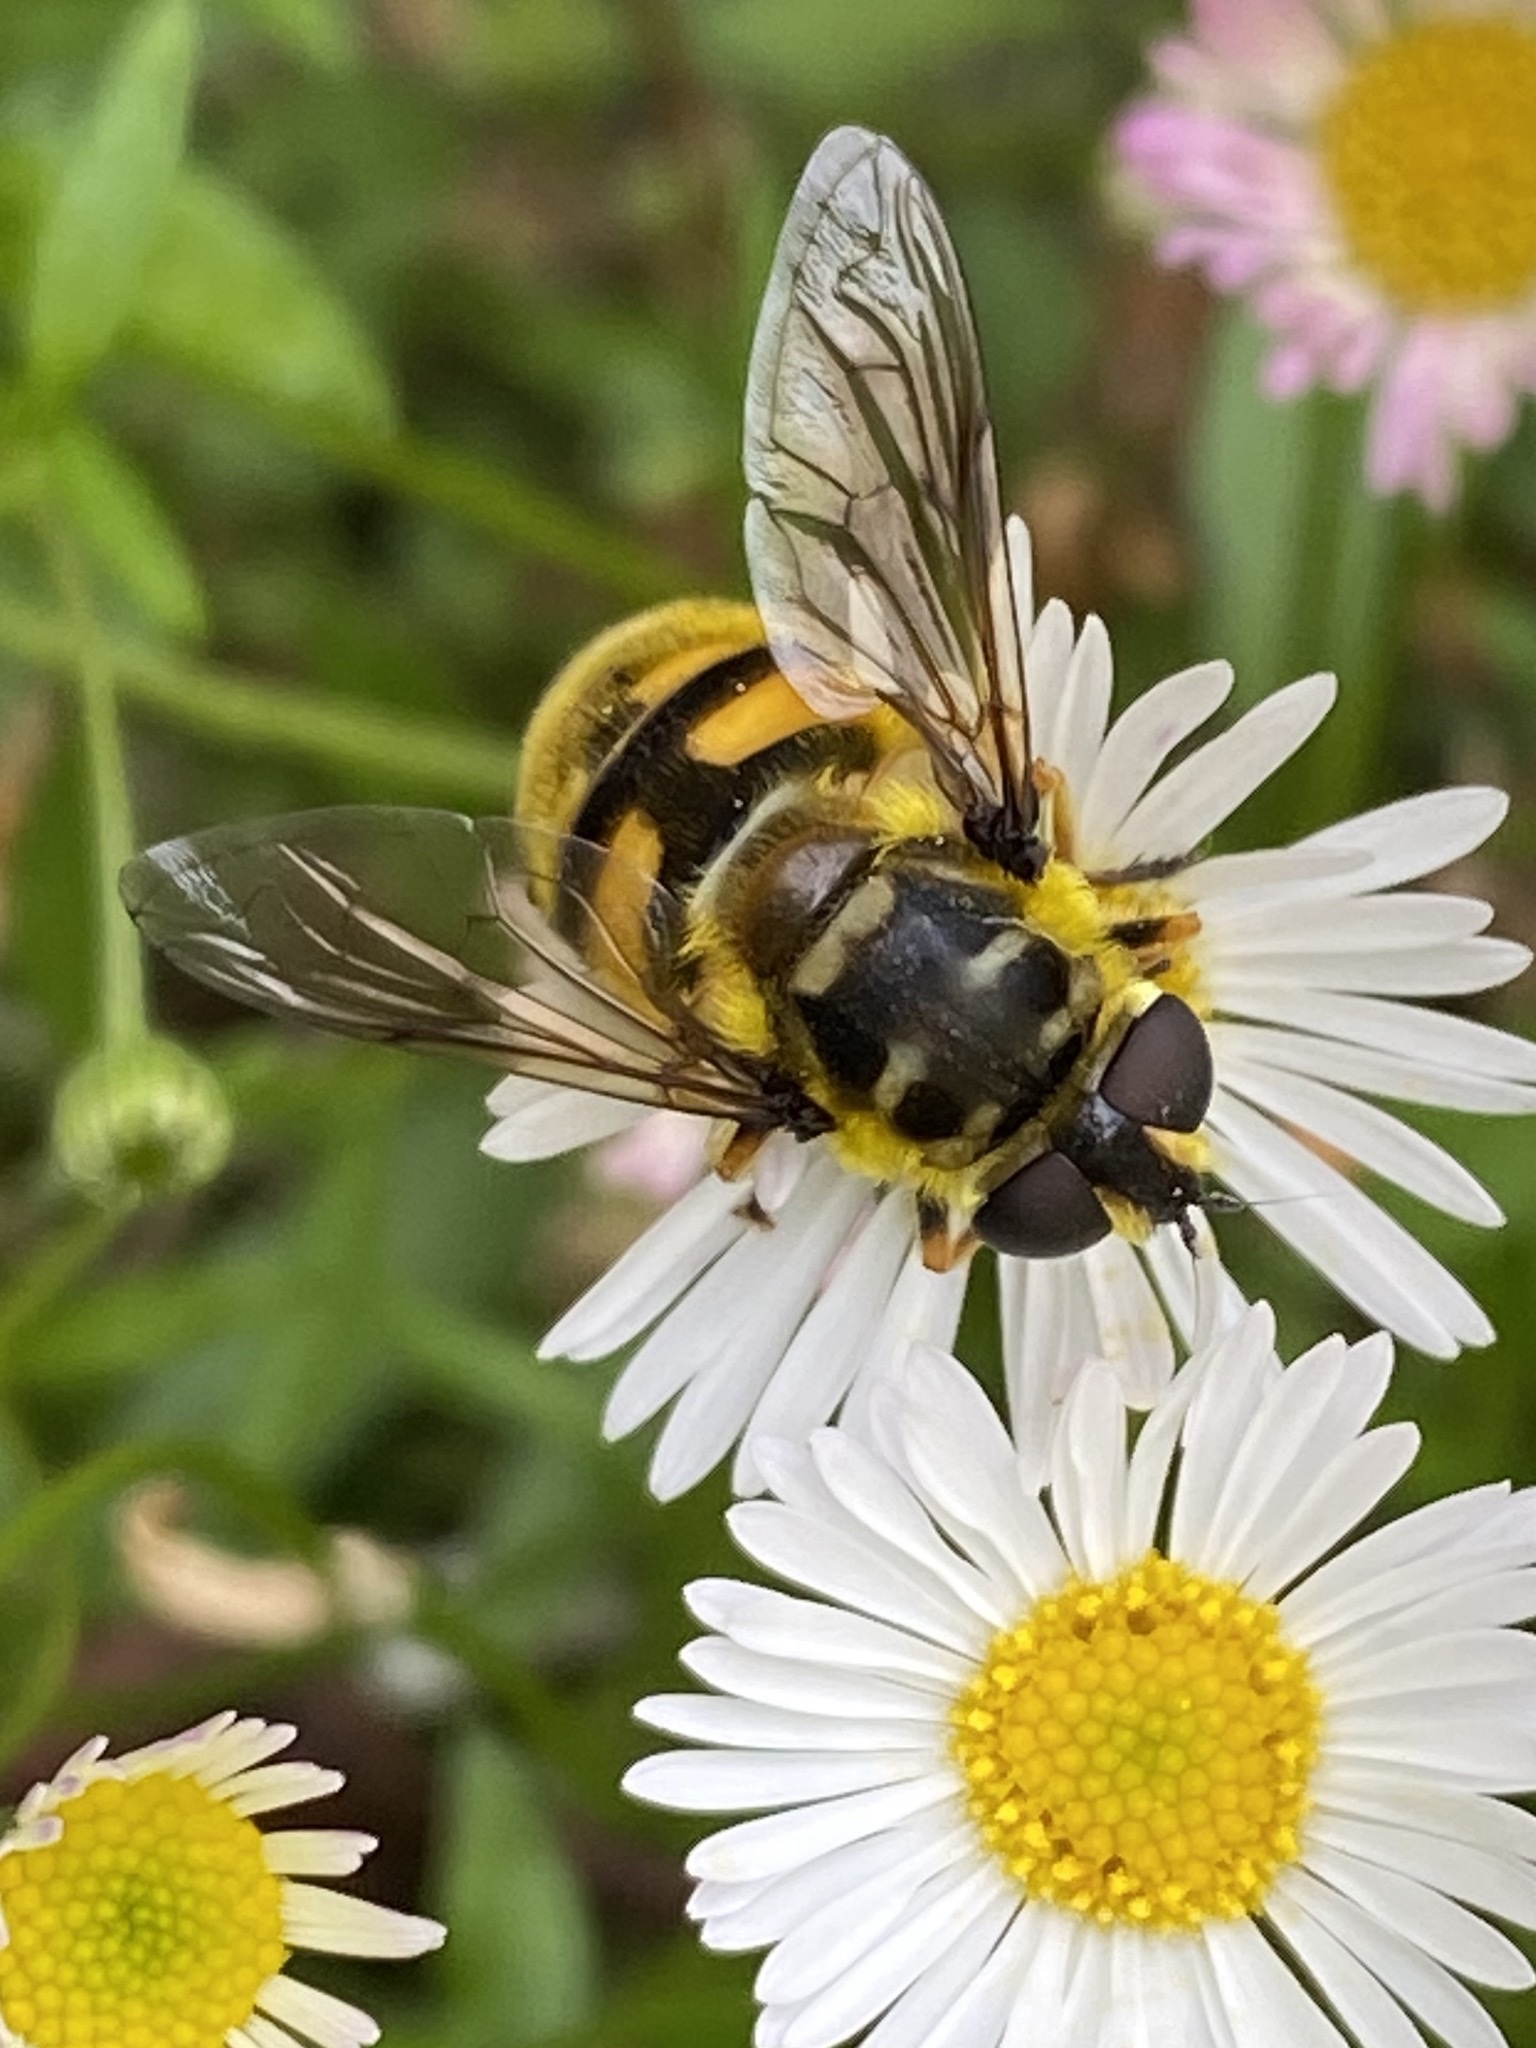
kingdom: Animalia
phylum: Arthropoda
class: Insecta
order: Diptera
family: Syrphidae
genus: Myathropa
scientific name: Myathropa florea
